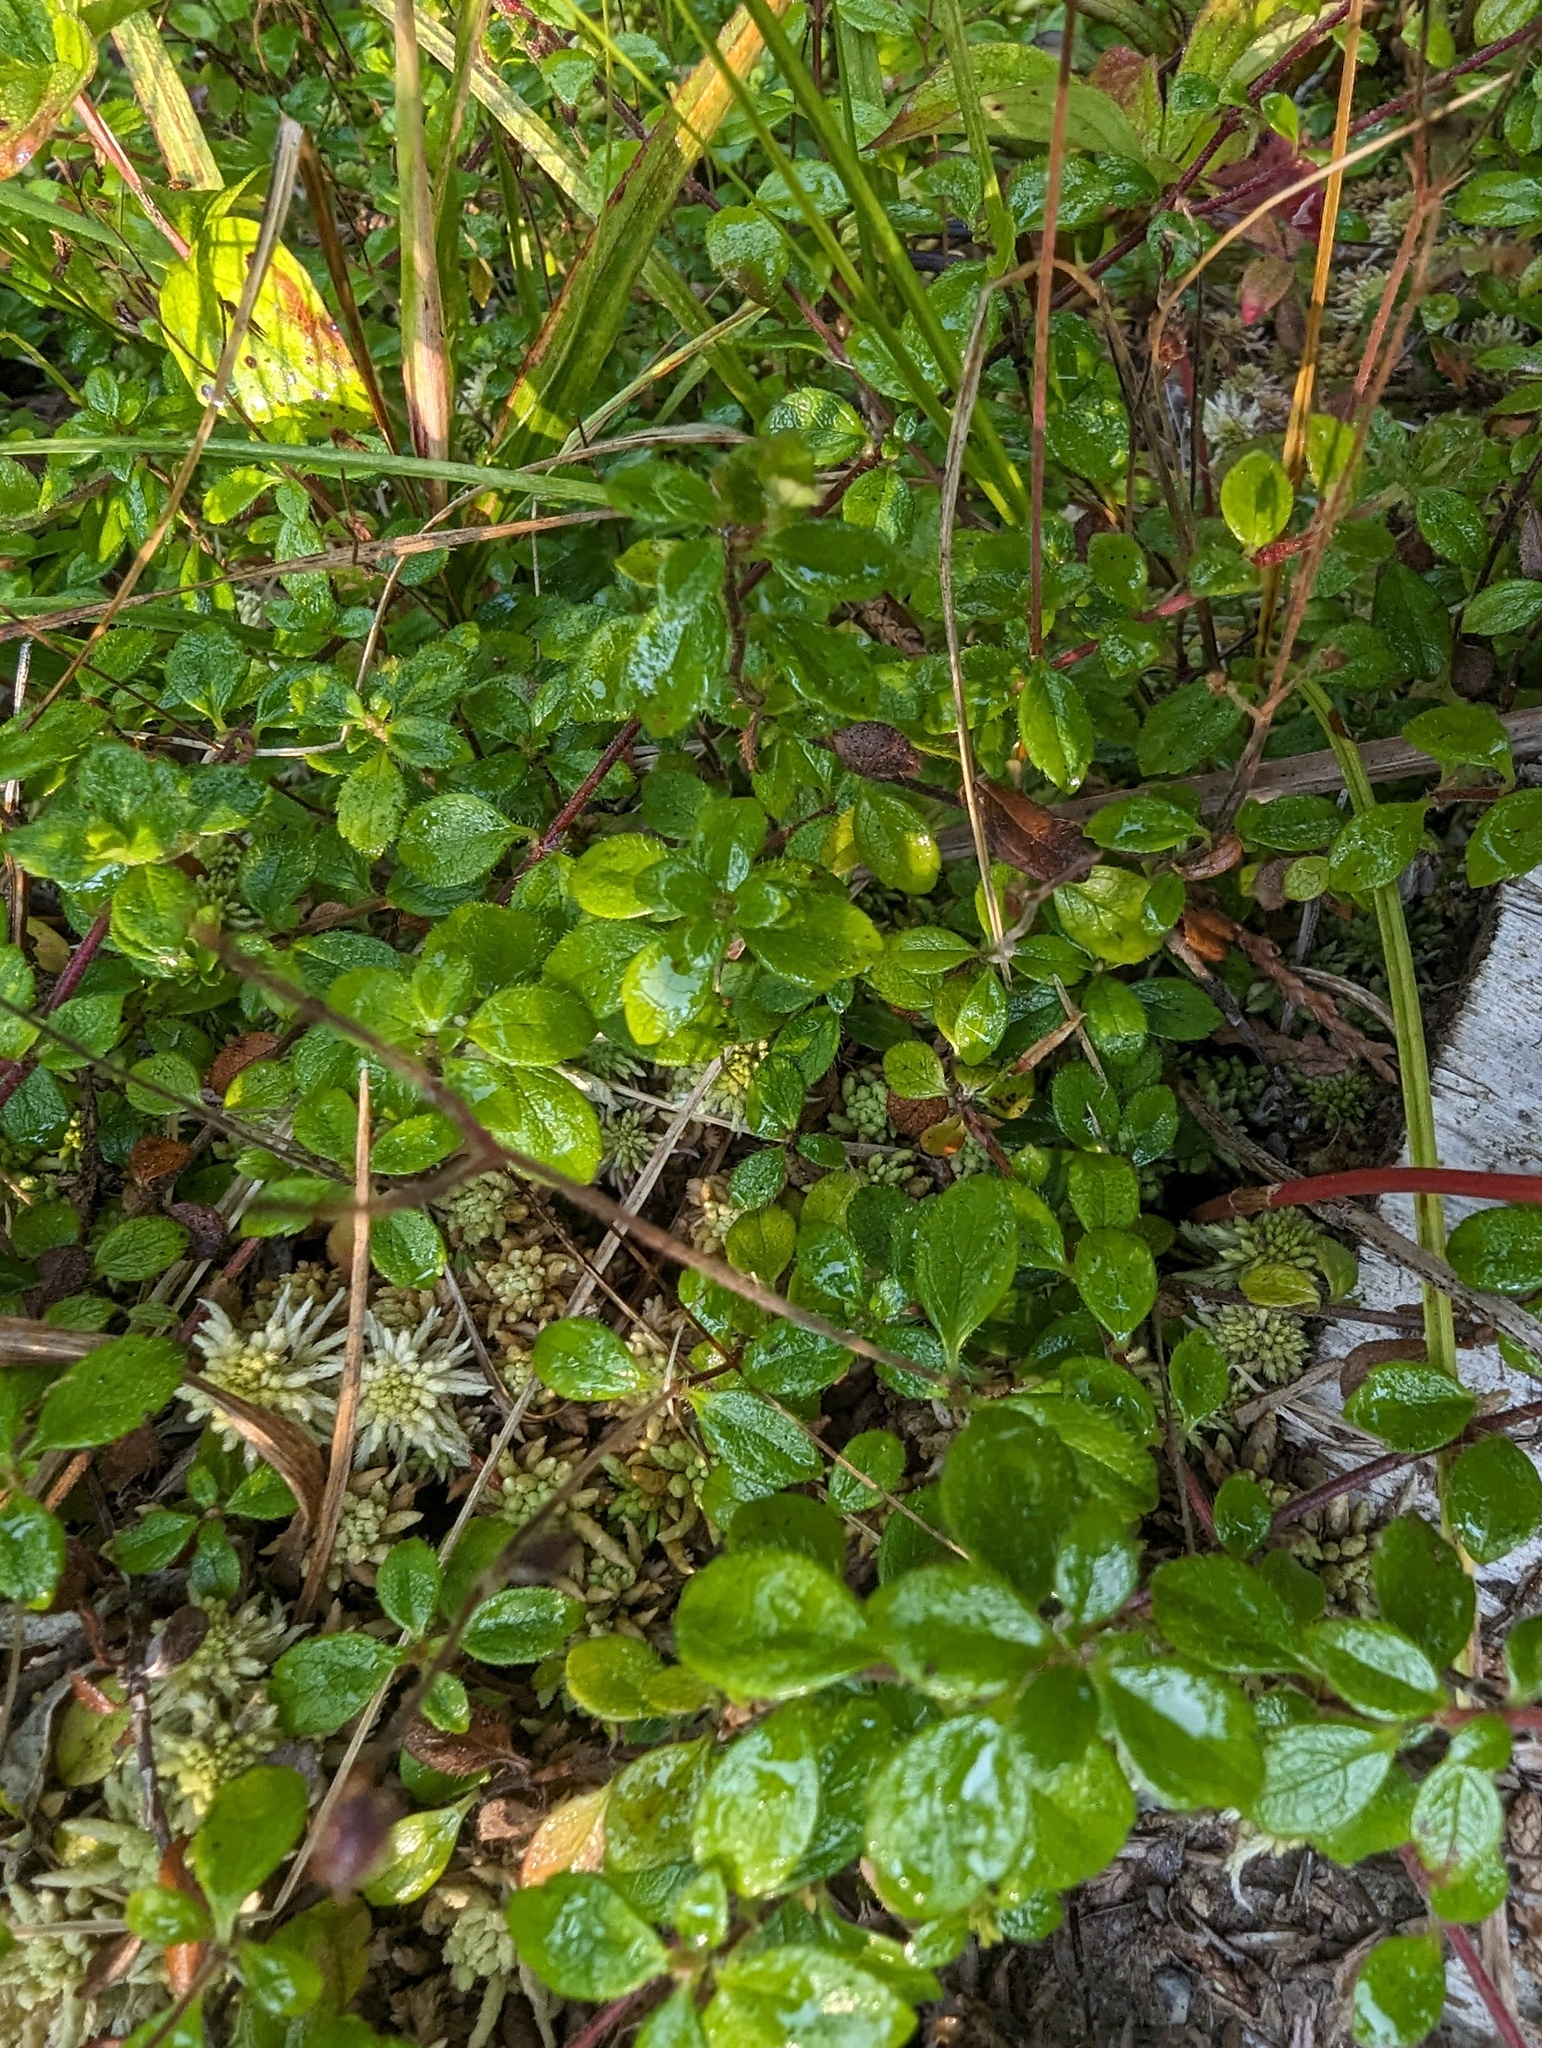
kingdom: Plantae
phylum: Tracheophyta
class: Magnoliopsida
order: Dipsacales
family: Caprifoliaceae
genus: Linnaea
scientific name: Linnaea borealis
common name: Twinflower
